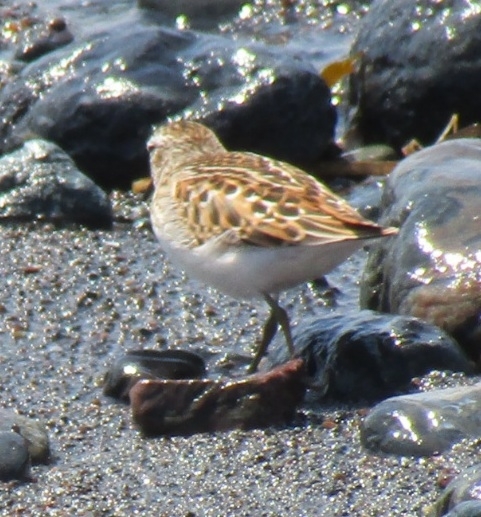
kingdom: Animalia
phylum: Chordata
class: Aves
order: Charadriiformes
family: Scolopacidae
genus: Calidris
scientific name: Calidris minutilla
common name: Least sandpiper
